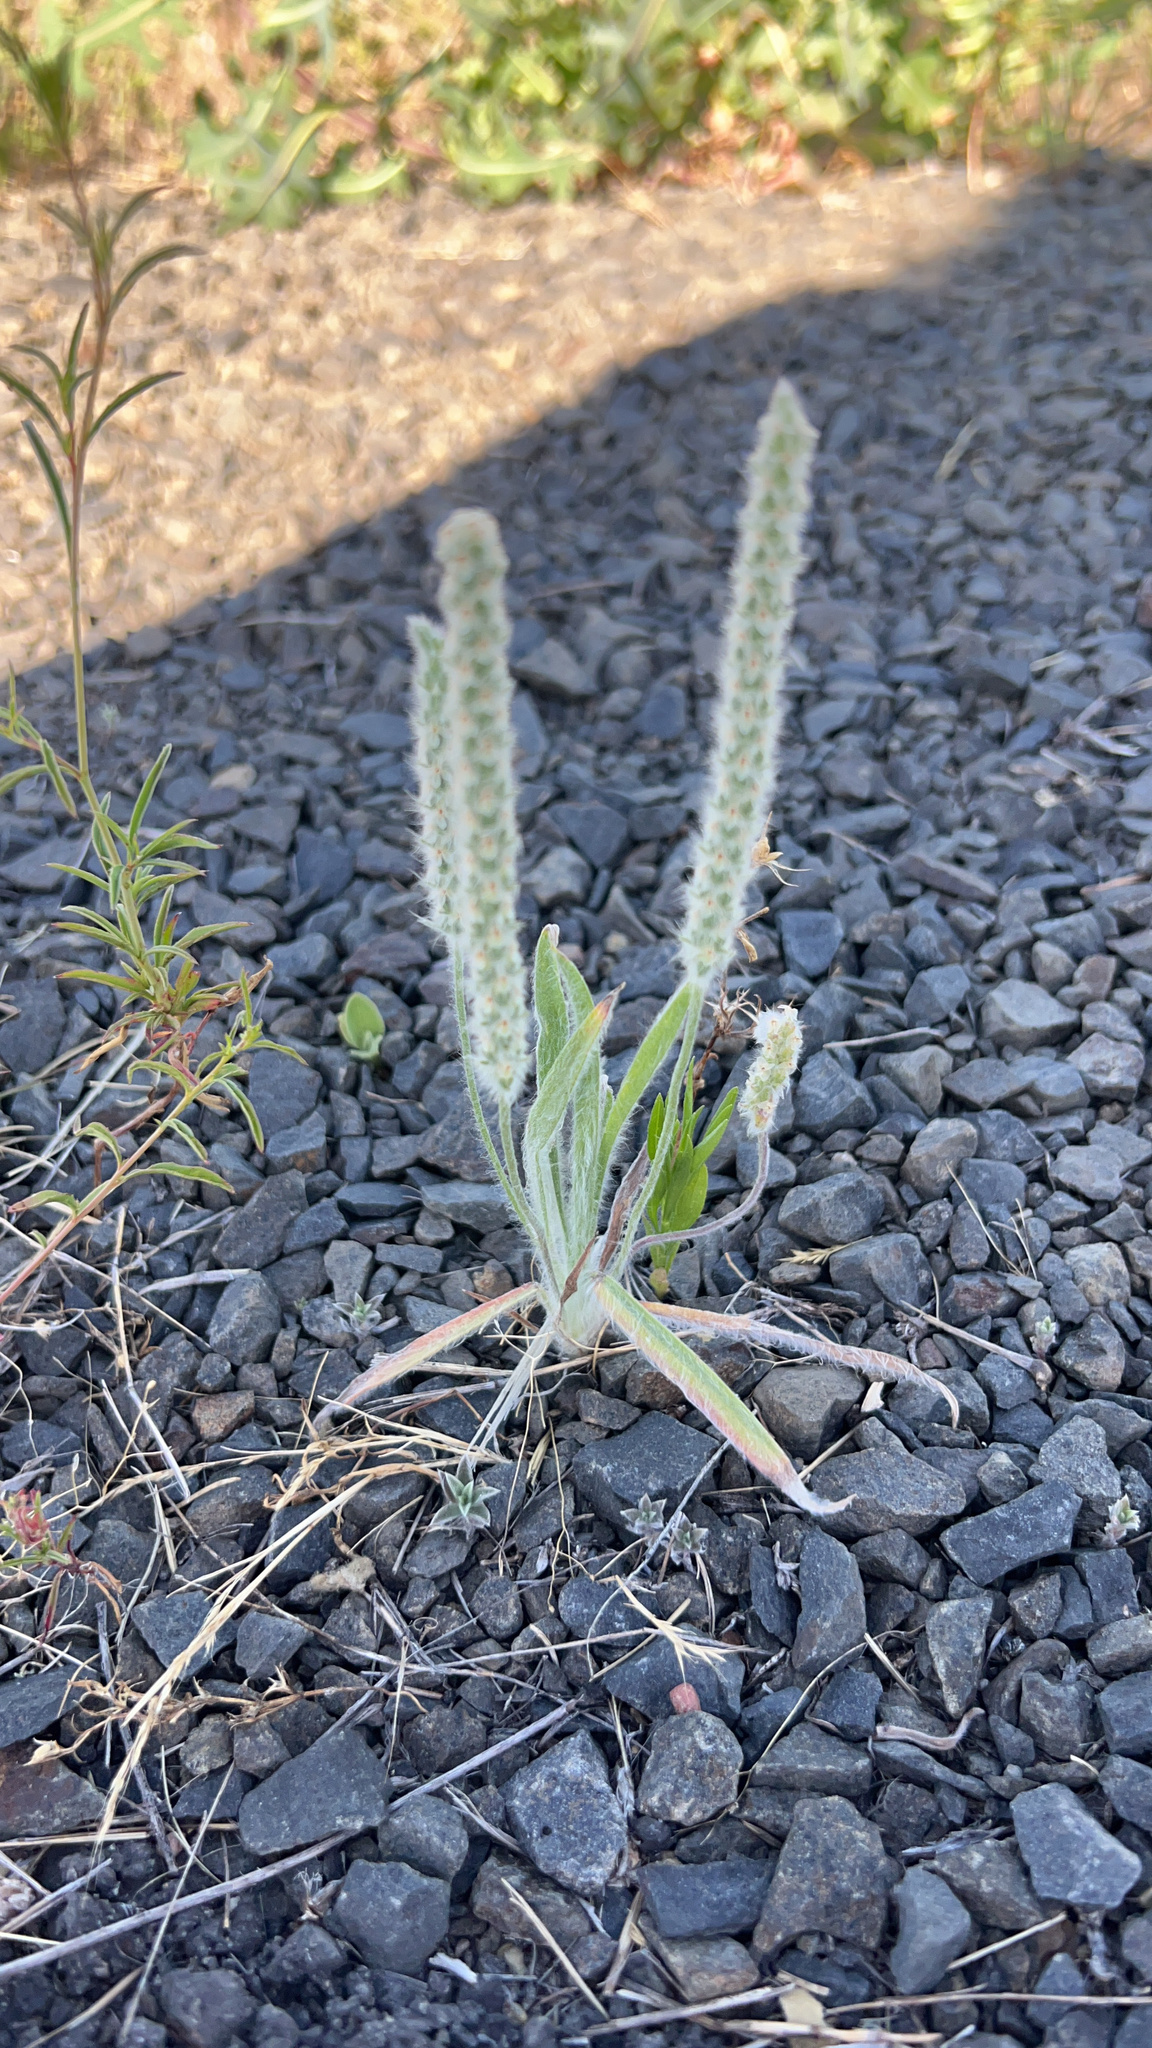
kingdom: Plantae
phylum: Tracheophyta
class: Magnoliopsida
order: Lamiales
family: Plantaginaceae
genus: Plantago
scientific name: Plantago patagonica
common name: Patagonia indian-wheat
